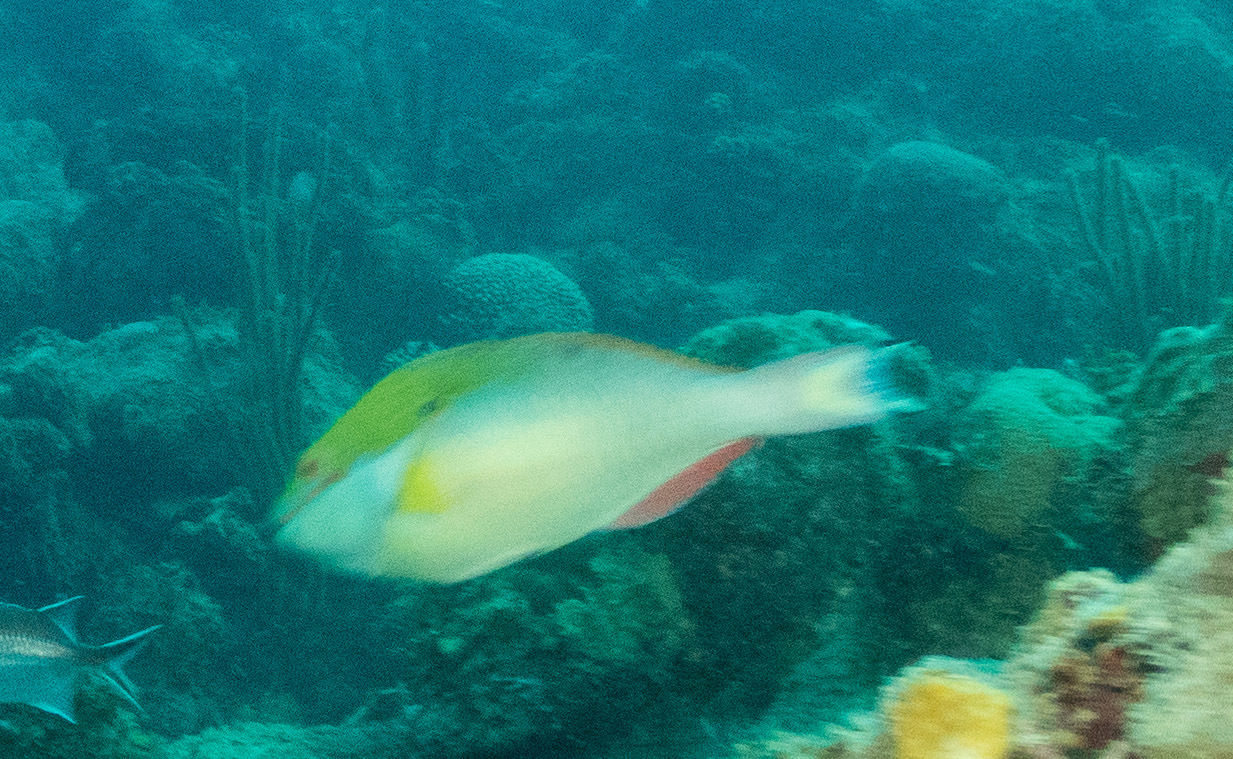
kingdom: Animalia
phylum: Chordata
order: Perciformes
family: Scaridae
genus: Sparisoma
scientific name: Sparisoma aurofrenatum
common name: Redband parrotfish
